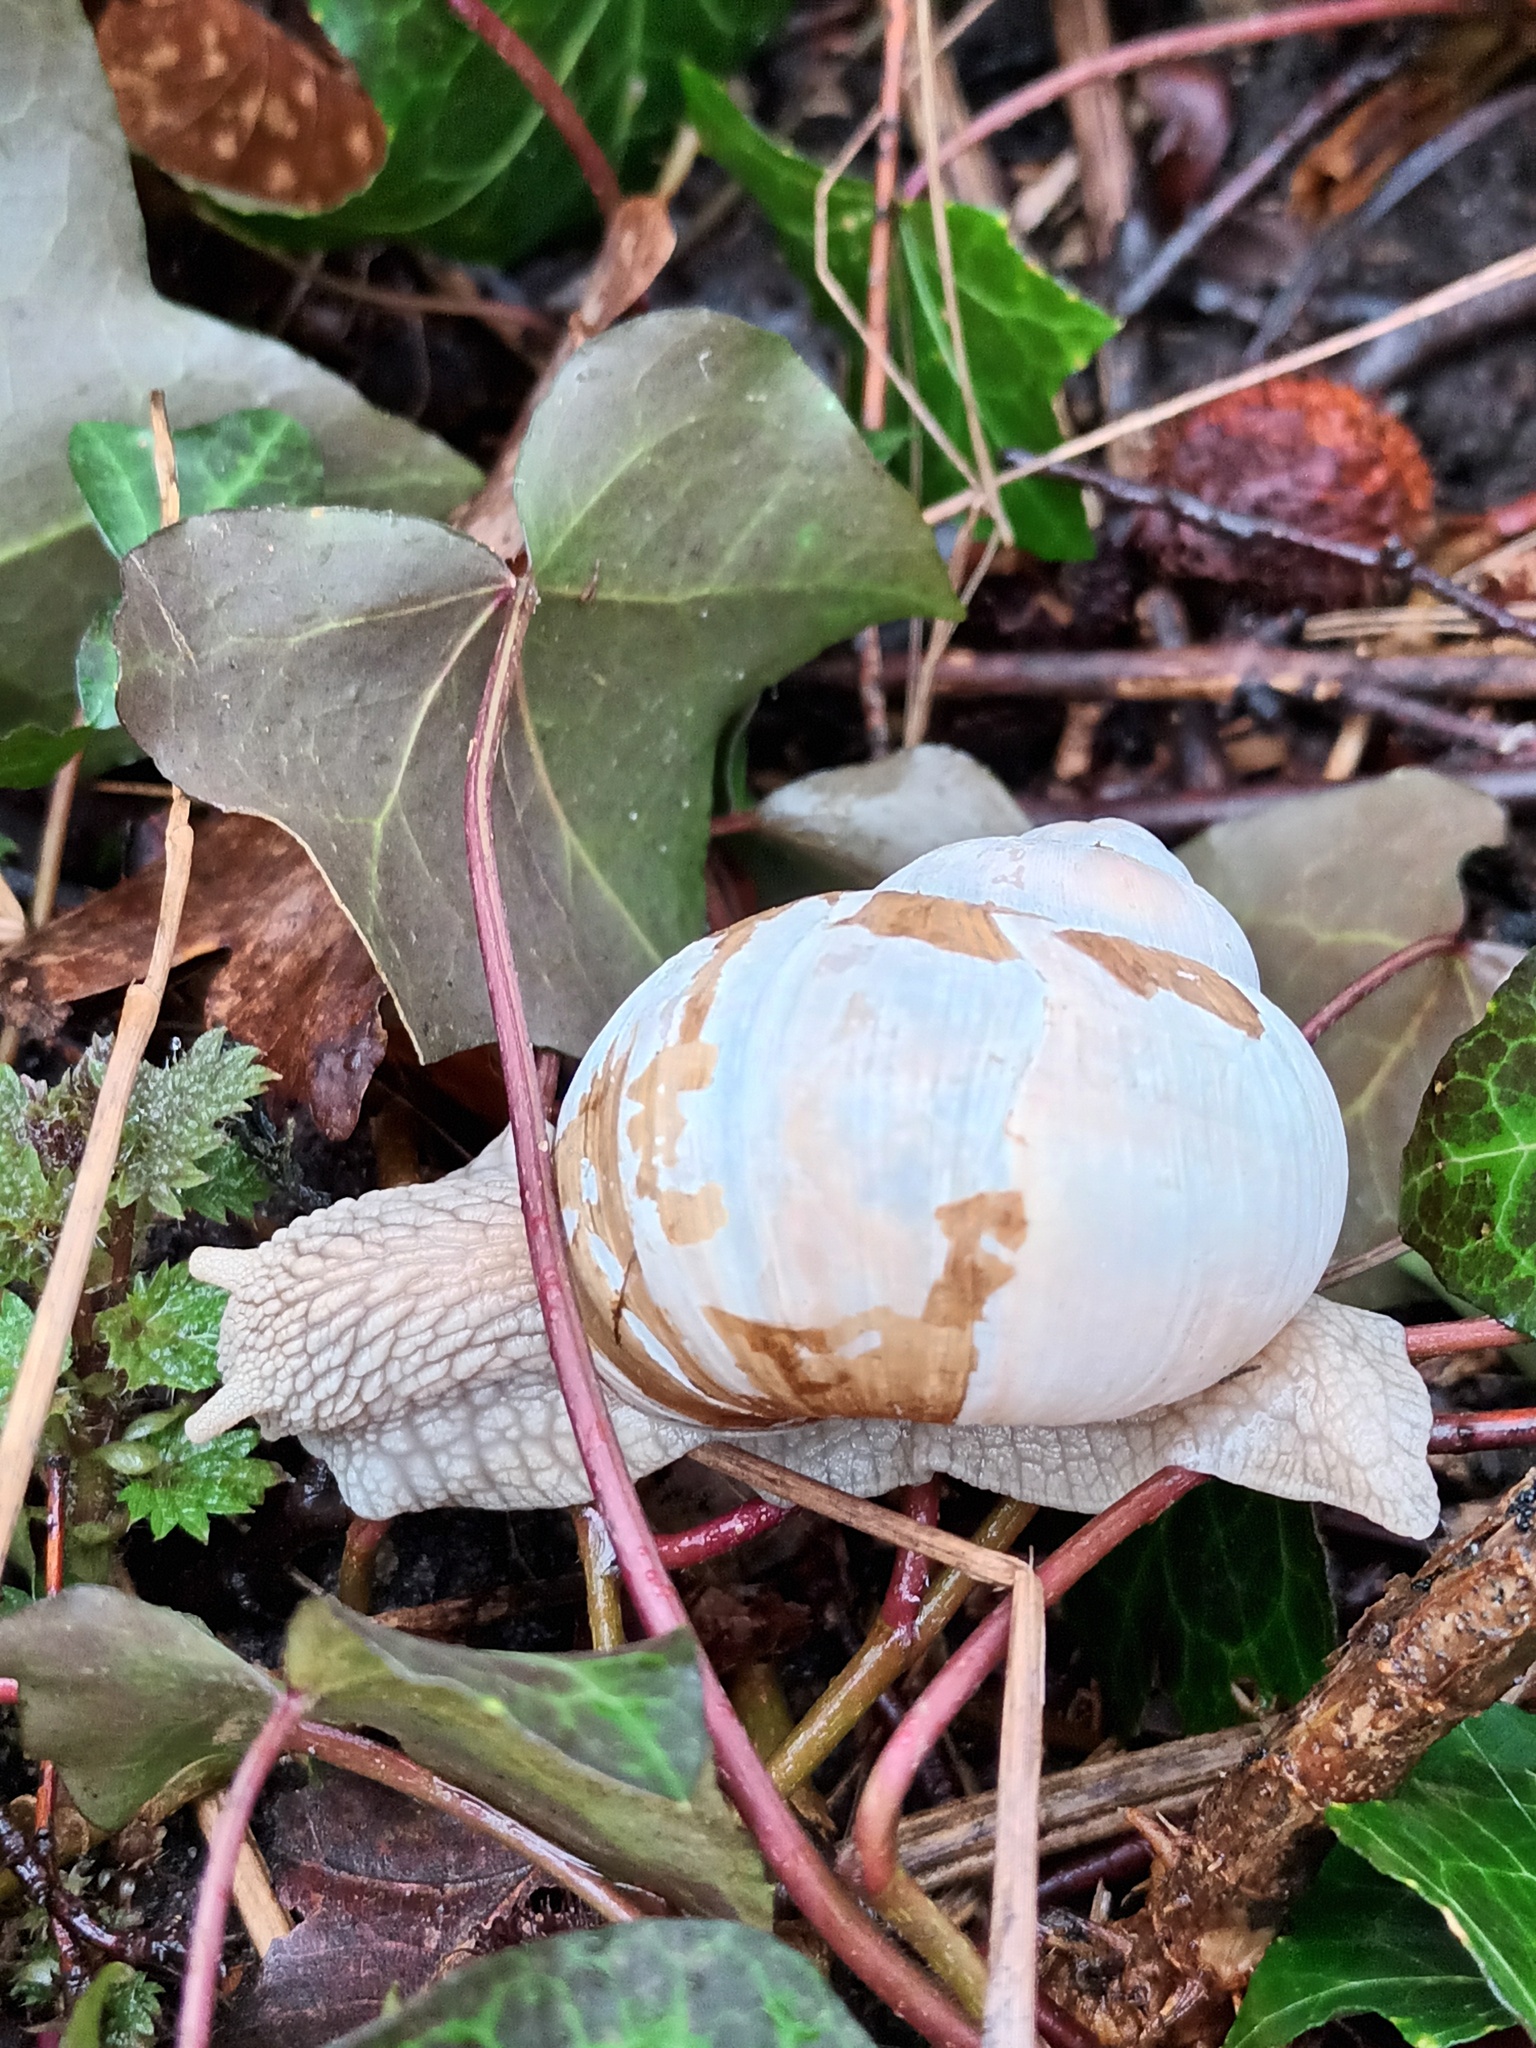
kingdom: Animalia
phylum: Mollusca
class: Gastropoda
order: Stylommatophora
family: Helicidae
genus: Helix
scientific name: Helix pomatia
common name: Roman snail
